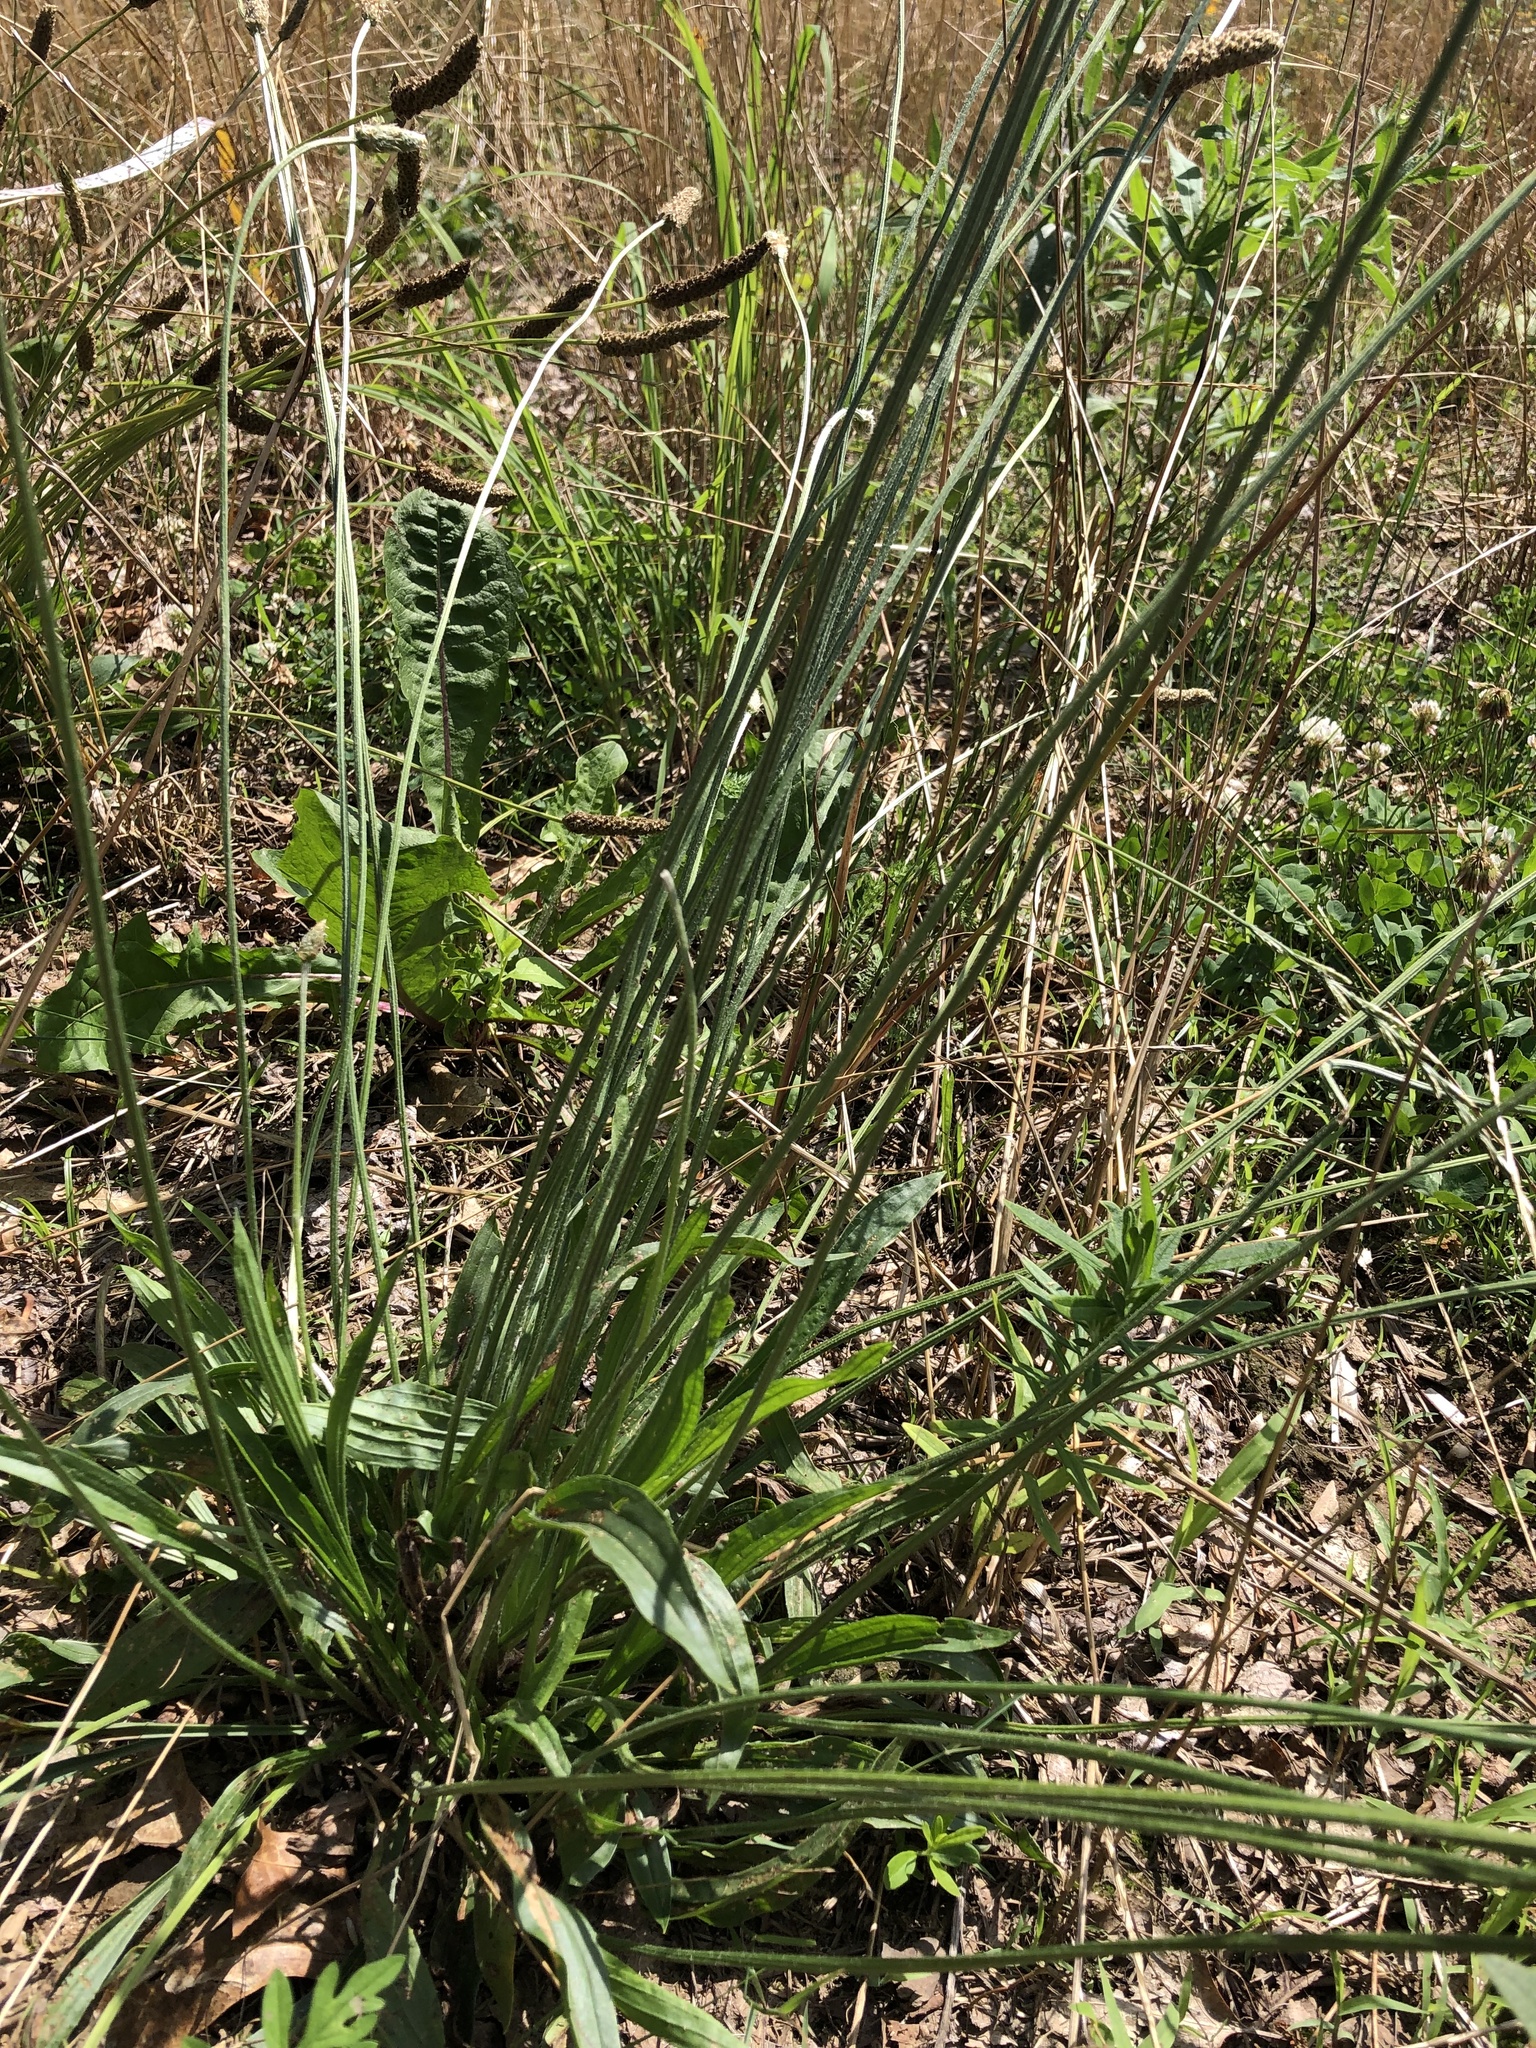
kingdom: Plantae
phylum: Tracheophyta
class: Magnoliopsida
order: Lamiales
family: Plantaginaceae
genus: Plantago
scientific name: Plantago lanceolata
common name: Ribwort plantain
